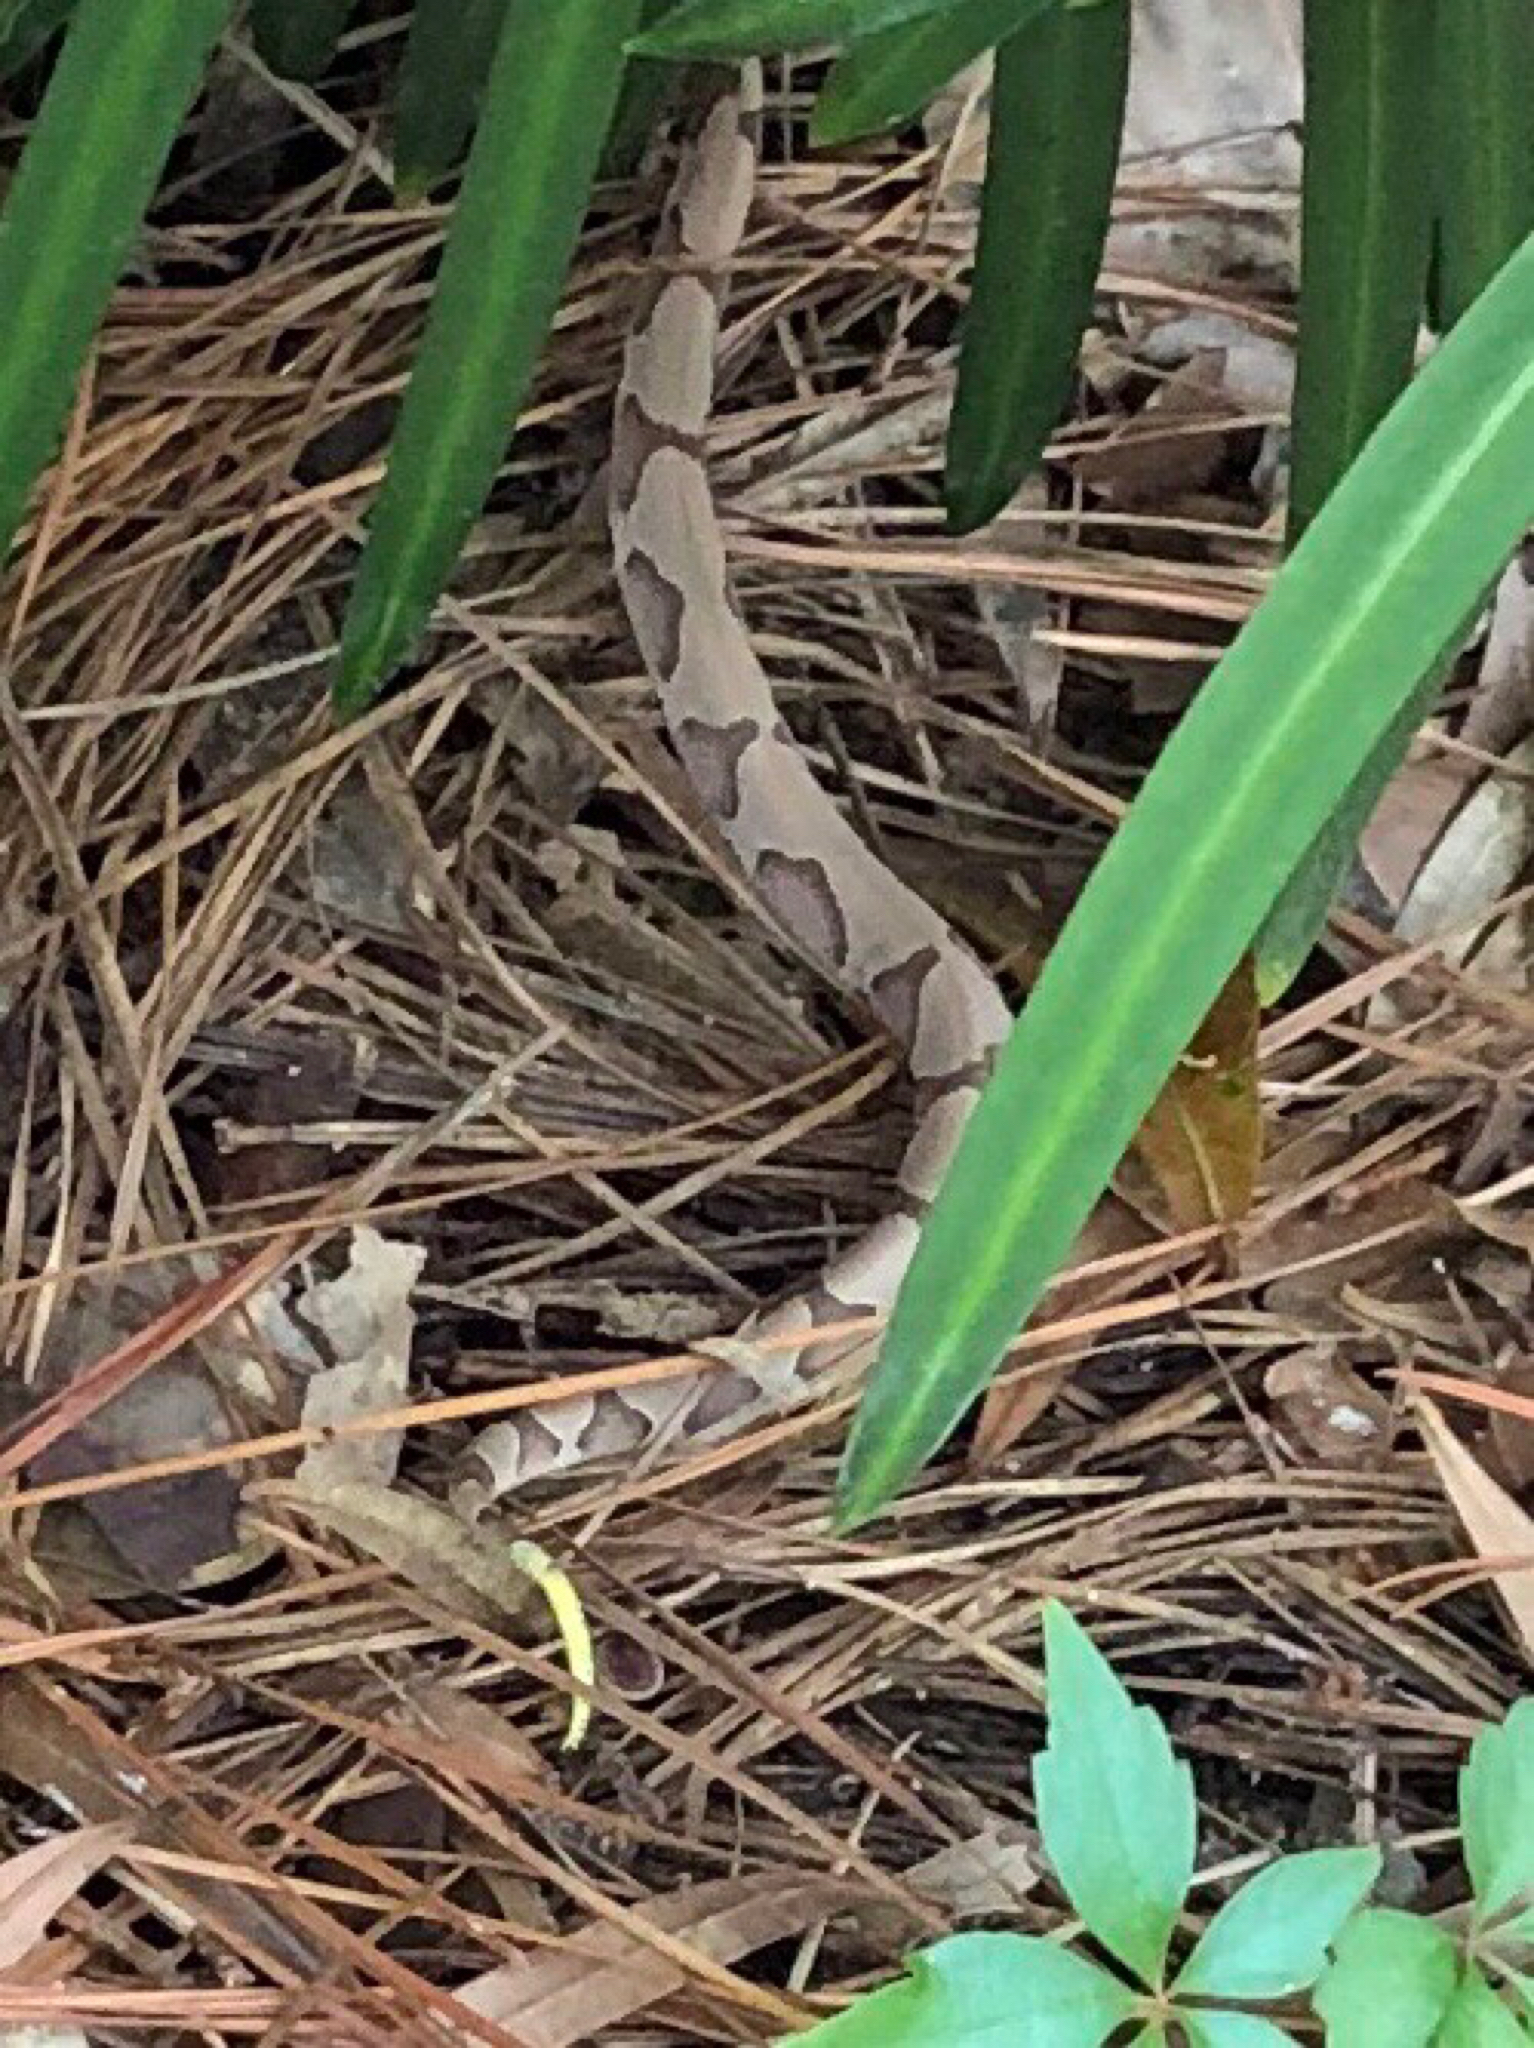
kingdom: Animalia
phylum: Chordata
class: Squamata
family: Viperidae
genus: Agkistrodon
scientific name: Agkistrodon contortrix
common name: Northern copperhead
